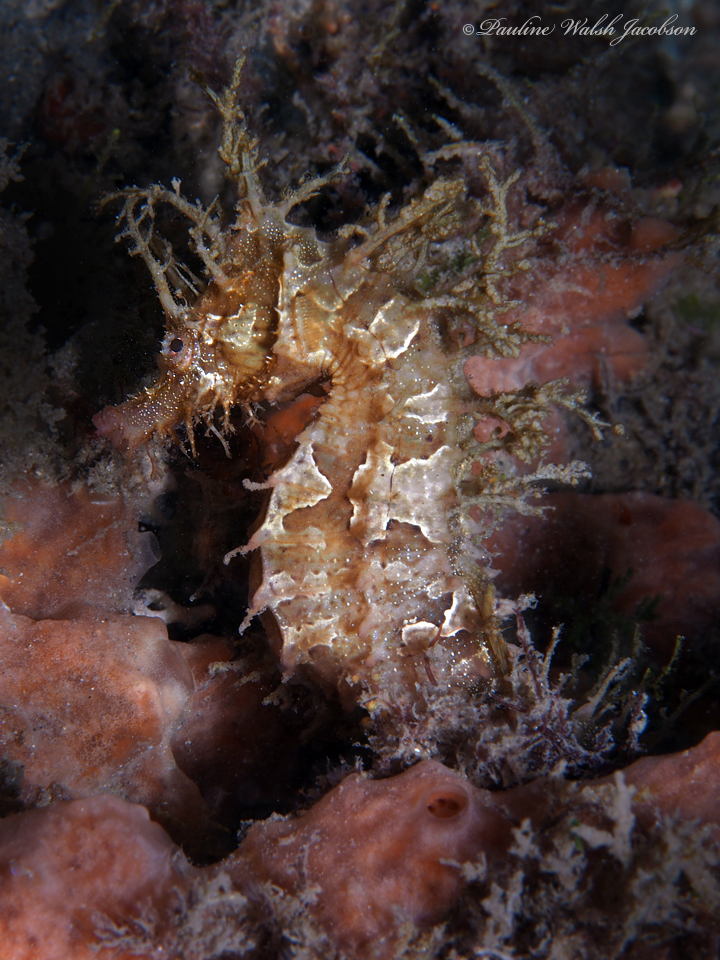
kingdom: Animalia
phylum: Chordata
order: Syngnathiformes
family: Syngnathidae
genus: Hippocampus
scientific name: Hippocampus erectus
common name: Lined seahorse
